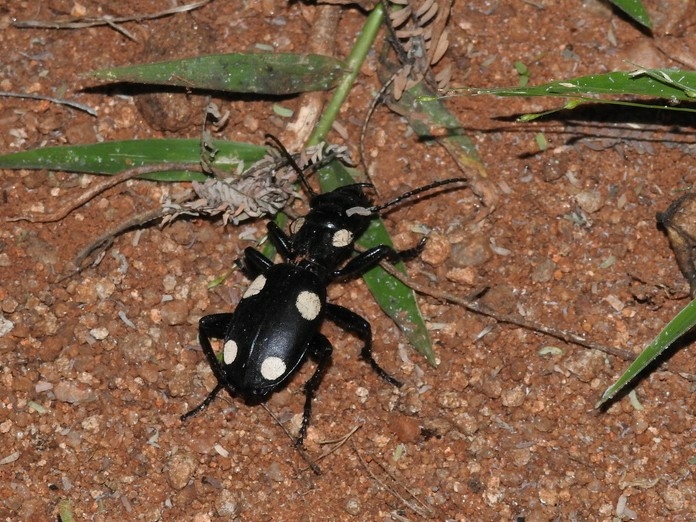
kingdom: Animalia
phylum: Arthropoda
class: Insecta
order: Coleoptera
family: Carabidae
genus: Anthia
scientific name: Anthia sexguttata
